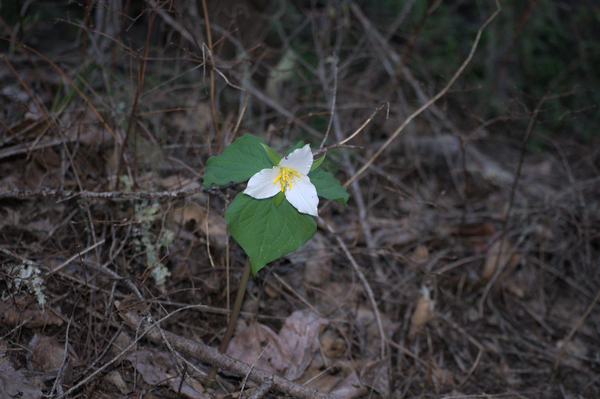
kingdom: Plantae
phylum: Tracheophyta
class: Liliopsida
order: Liliales
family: Melanthiaceae
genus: Trillium
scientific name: Trillium ovatum
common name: Pacific trillium
